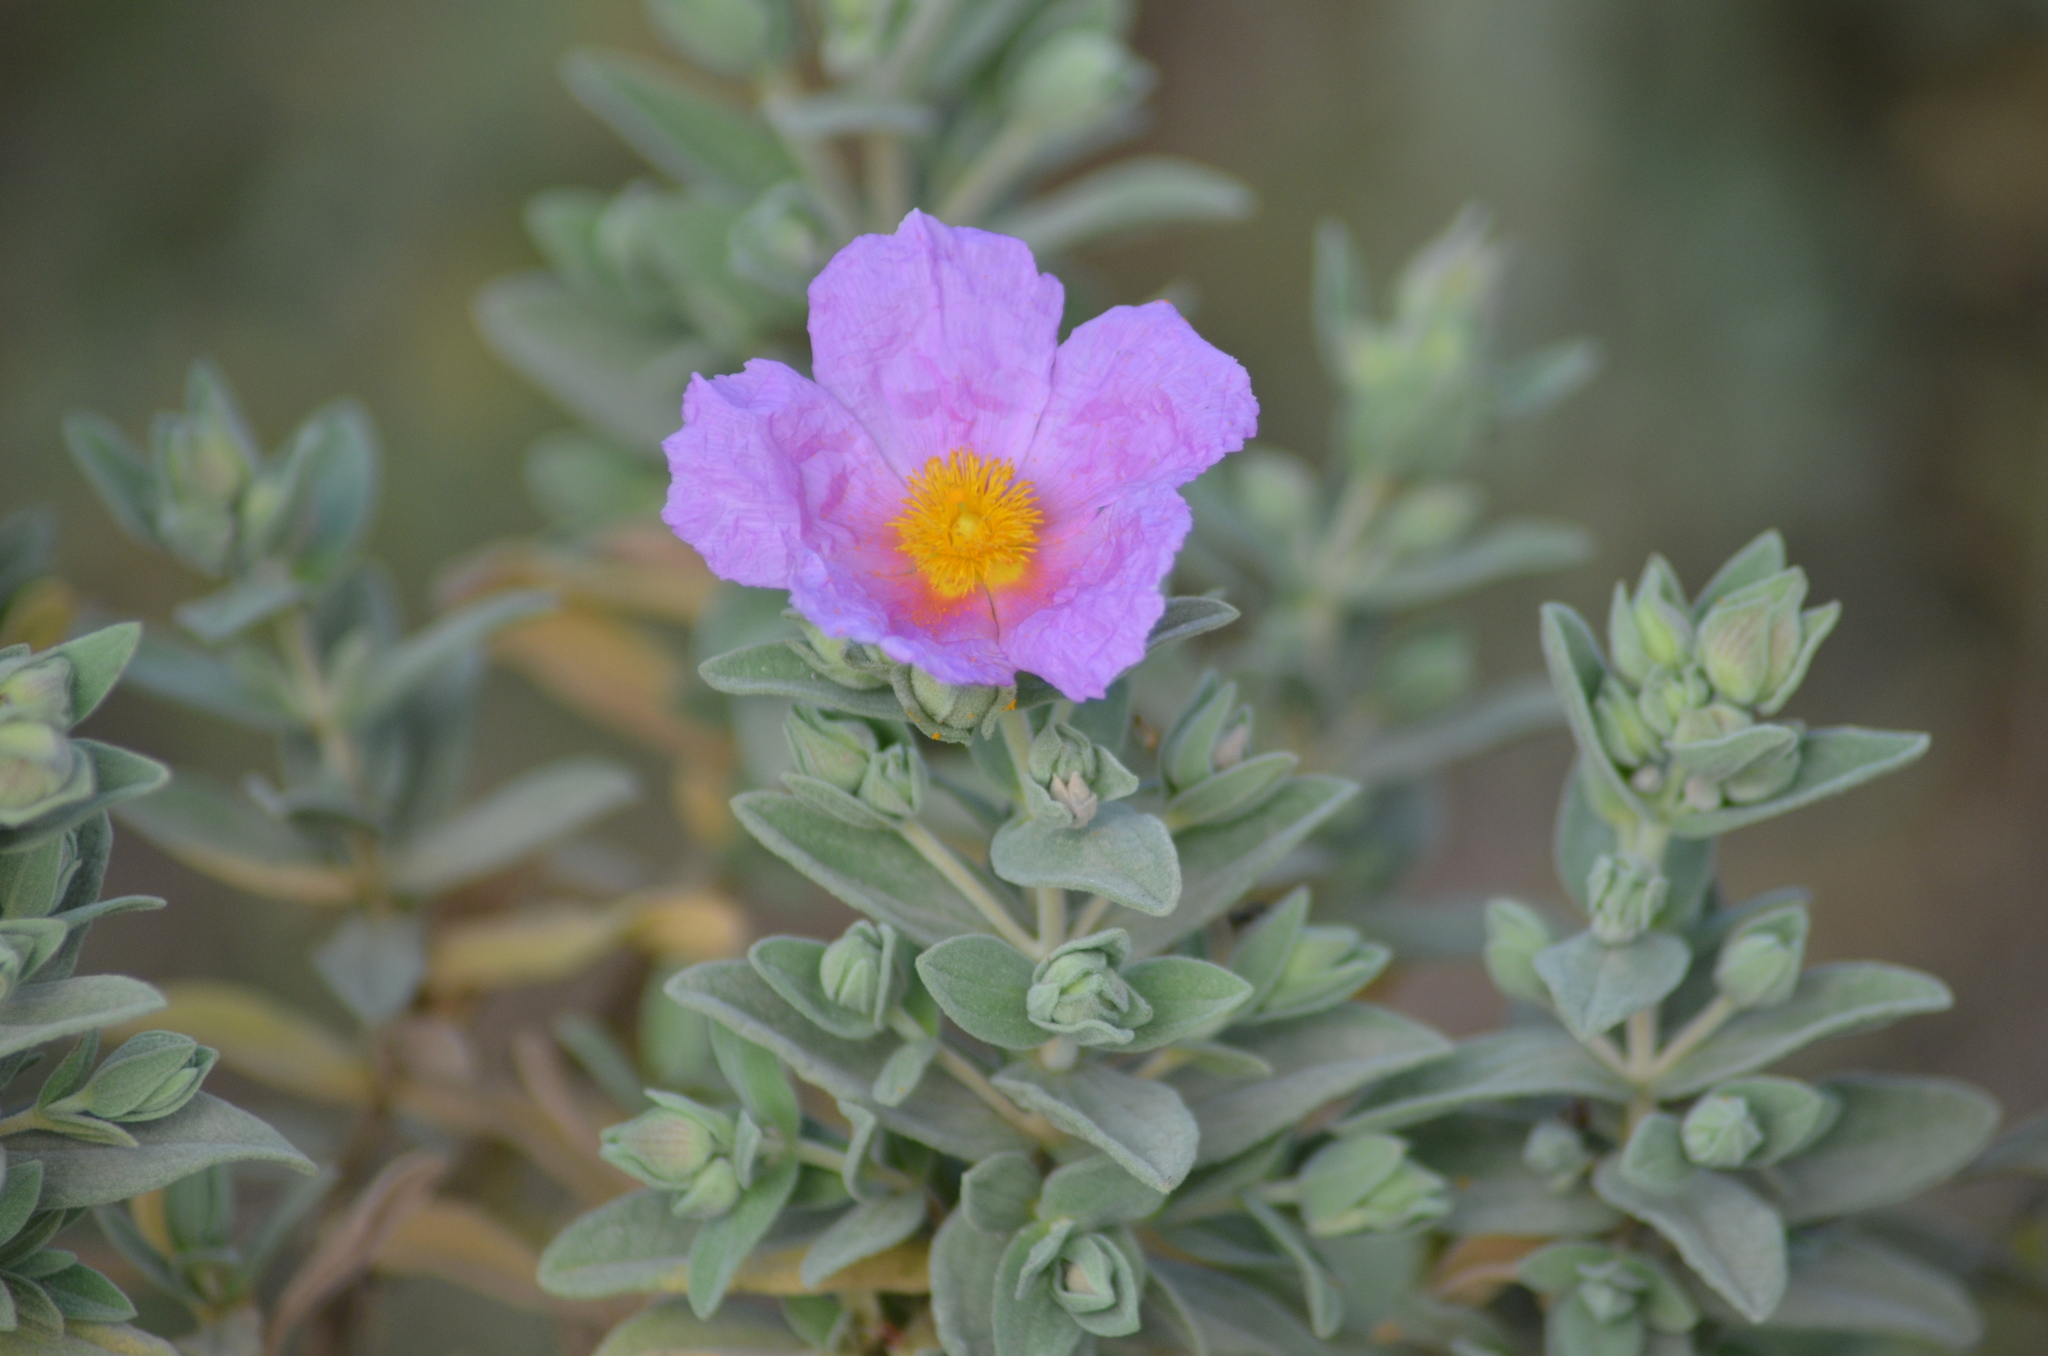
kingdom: Plantae
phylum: Tracheophyta
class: Magnoliopsida
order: Malvales
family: Cistaceae
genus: Cistus
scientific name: Cistus albidus
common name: White-leaf rock-rose
